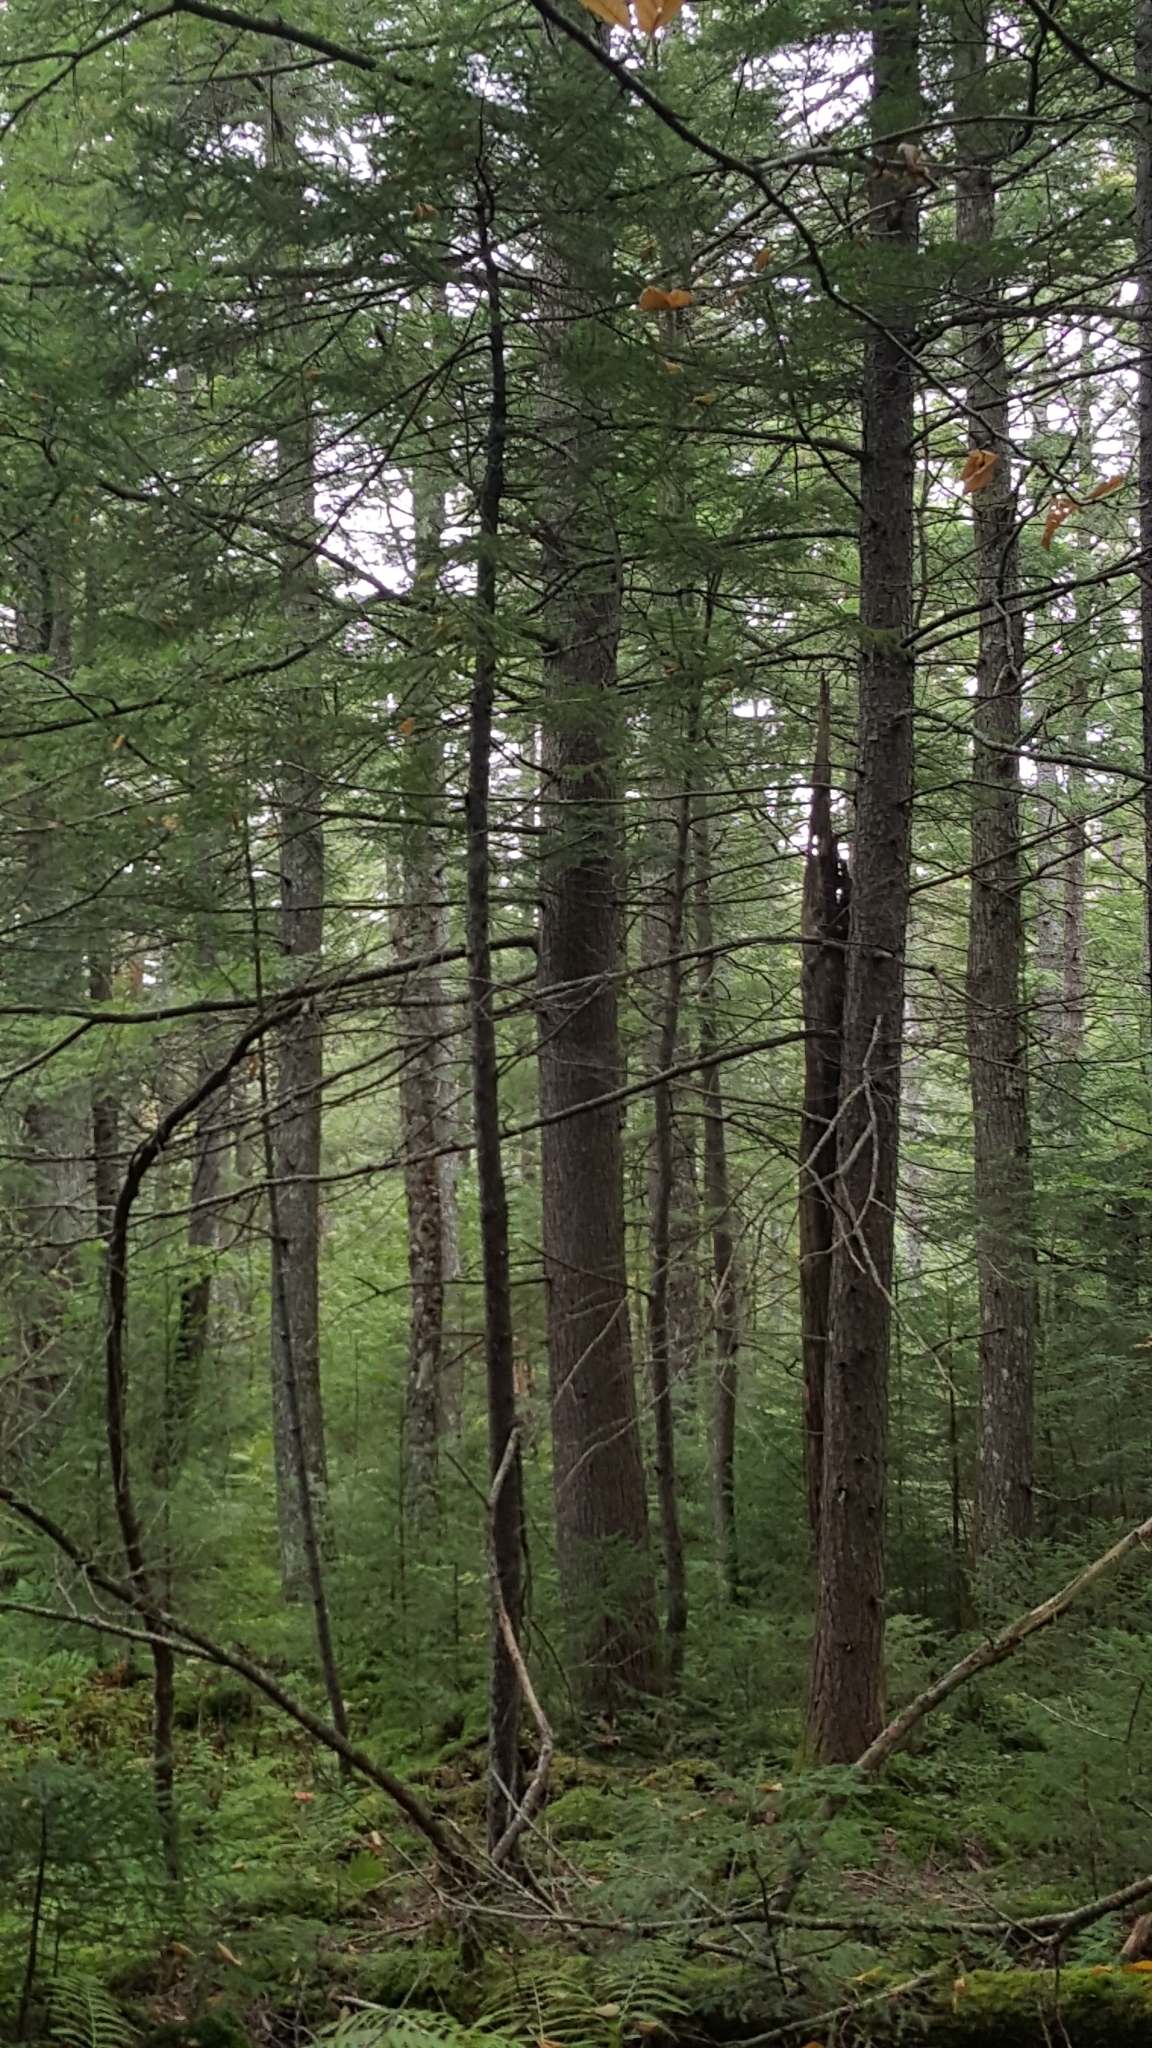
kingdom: Plantae
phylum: Tracheophyta
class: Pinopsida
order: Pinales
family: Pinaceae
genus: Tsuga
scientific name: Tsuga canadensis
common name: Eastern hemlock
